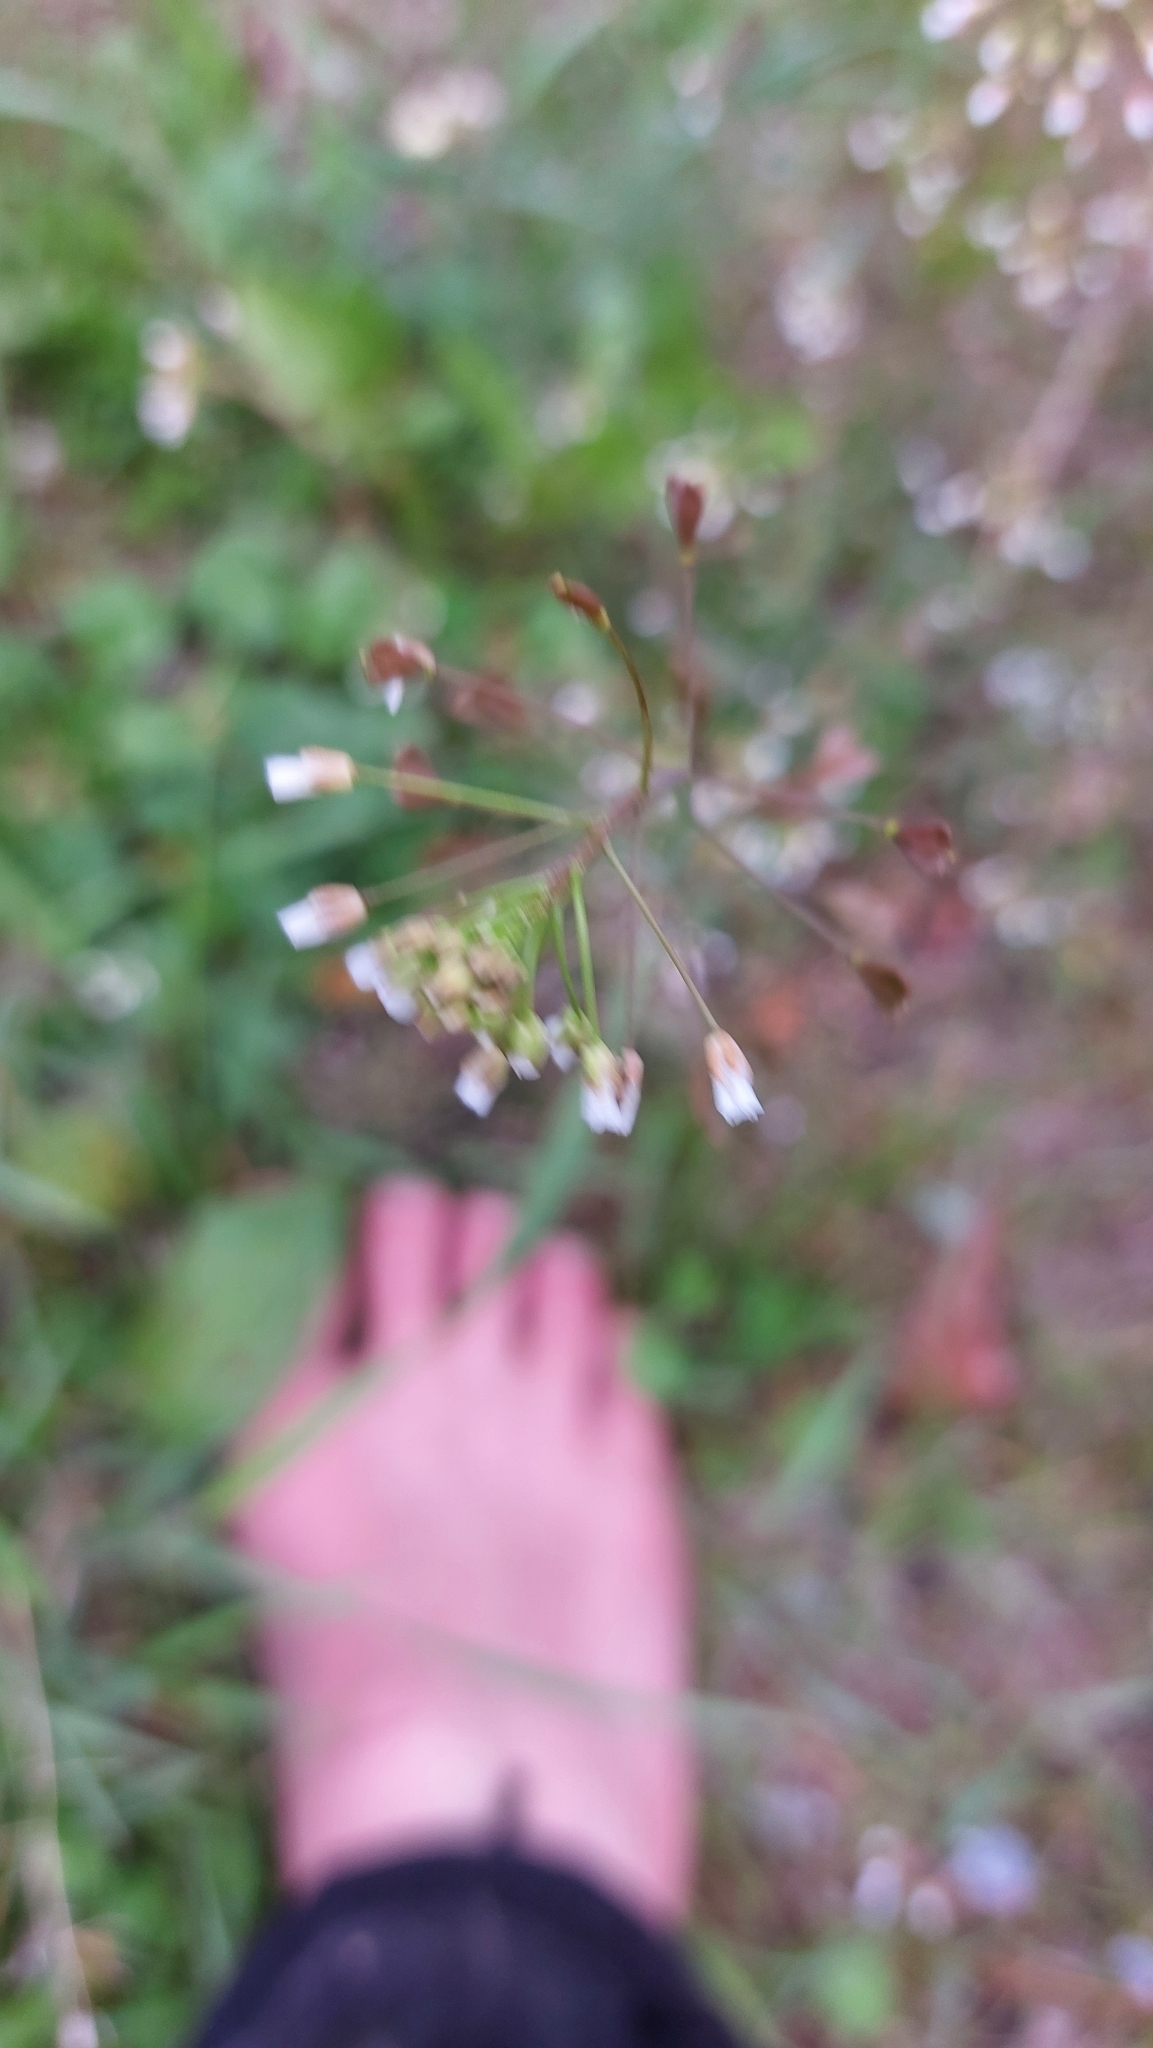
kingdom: Plantae
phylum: Tracheophyta
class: Magnoliopsida
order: Brassicales
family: Brassicaceae
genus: Capsella
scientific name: Capsella bursa-pastoris
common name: Shepherd's purse
